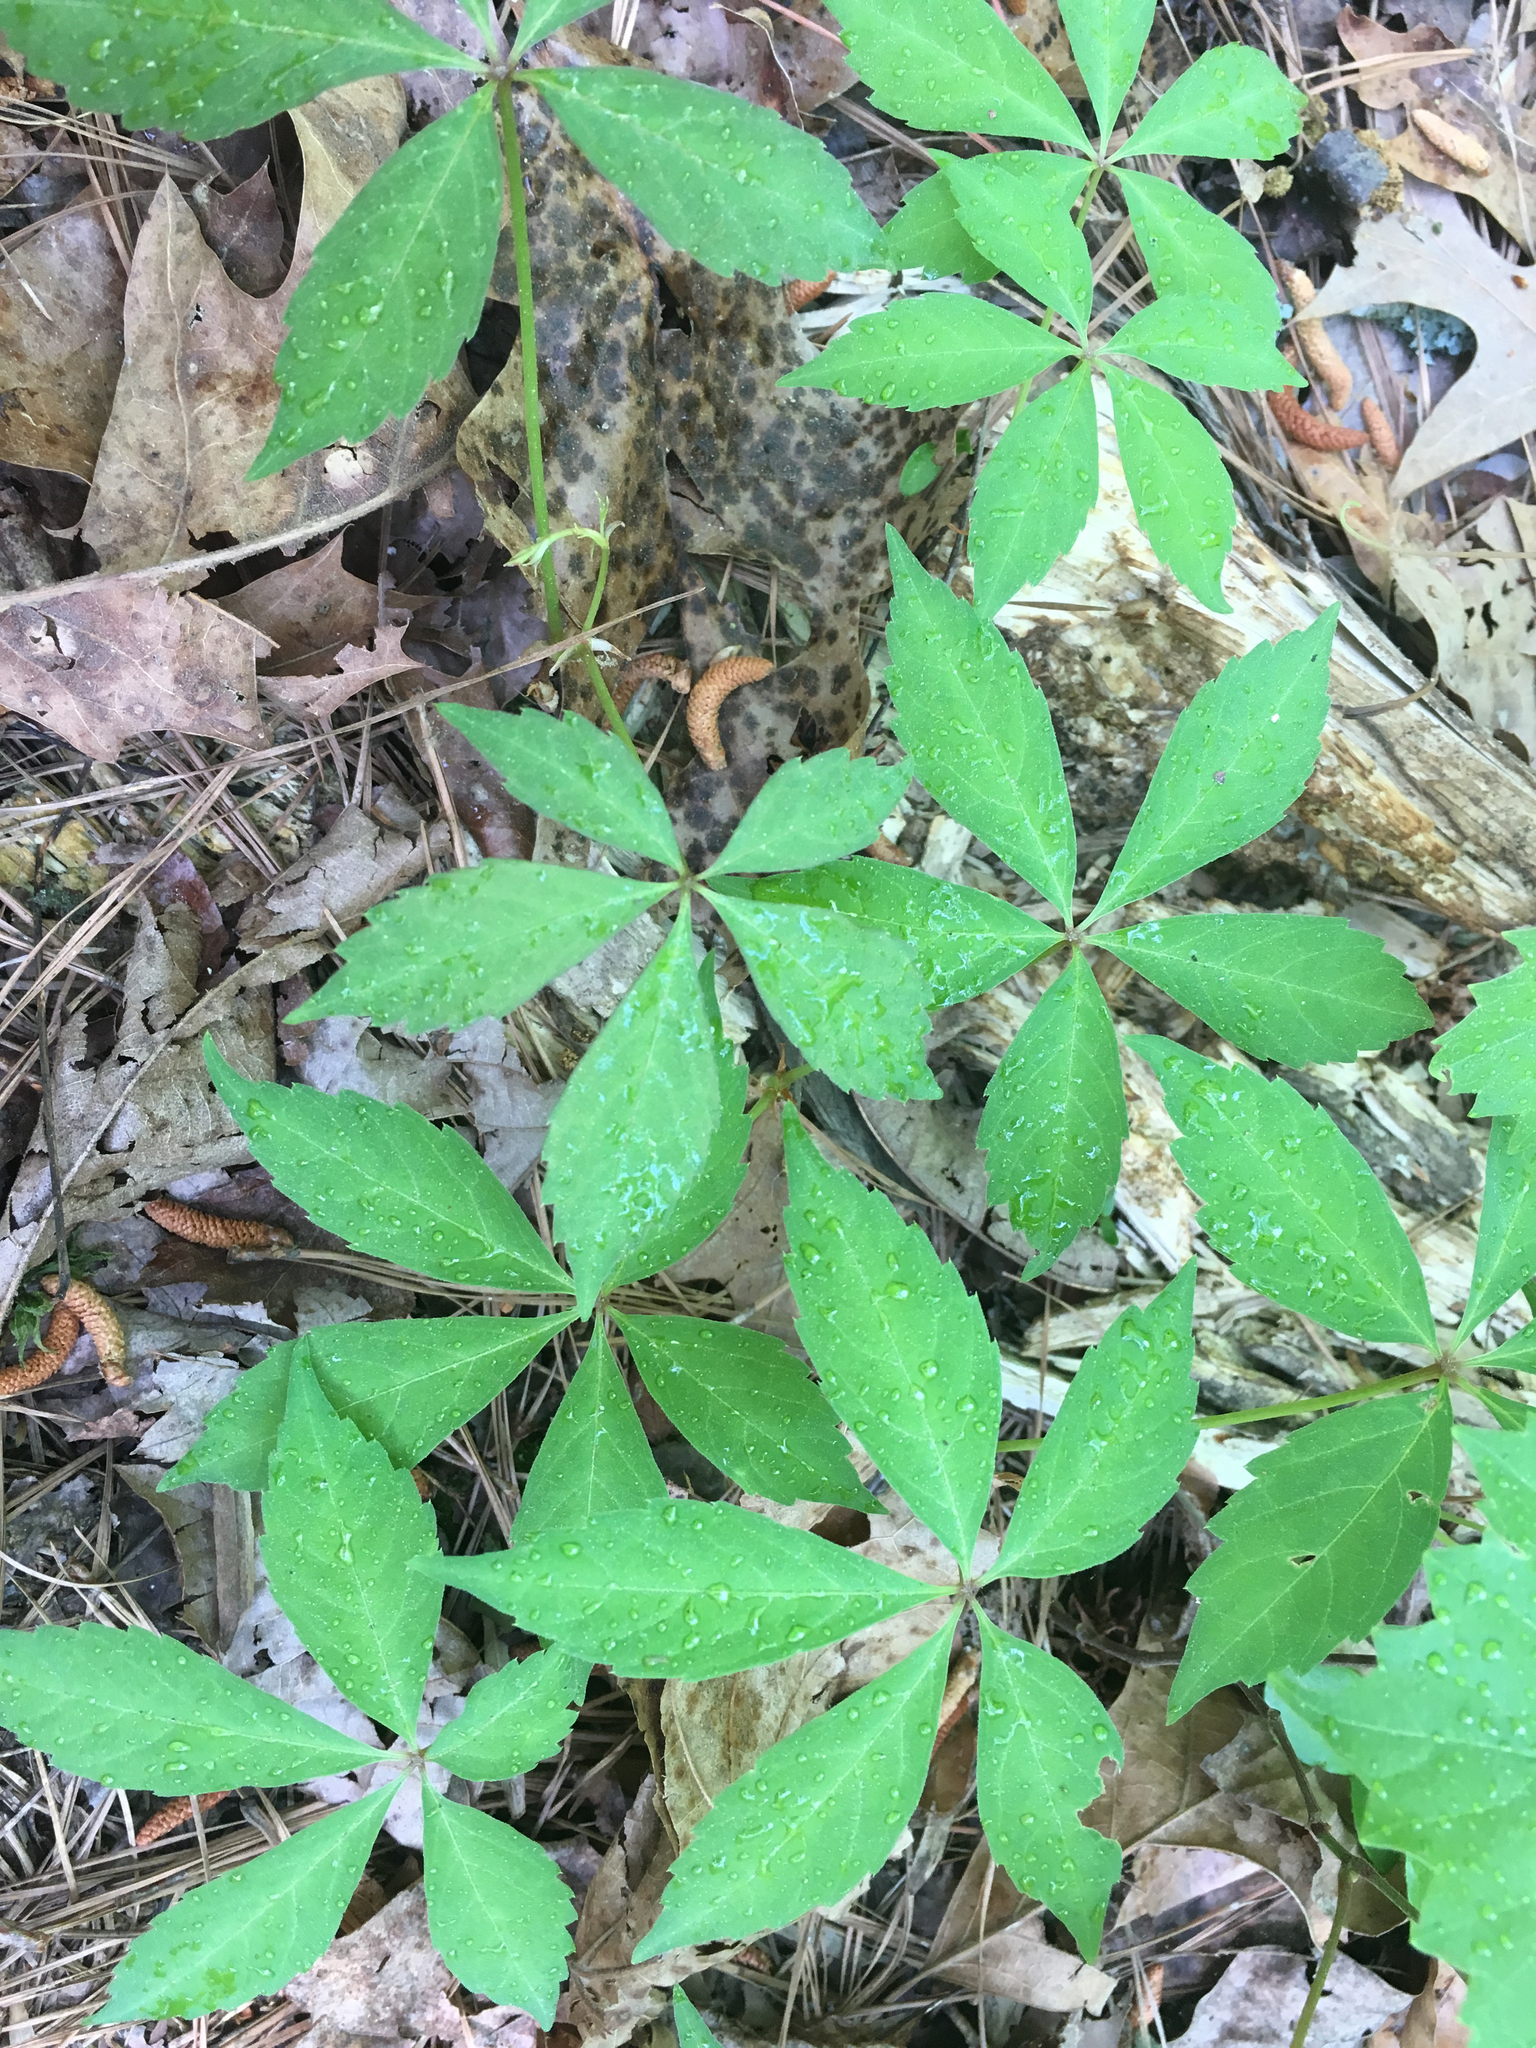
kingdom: Plantae
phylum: Tracheophyta
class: Magnoliopsida
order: Vitales
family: Vitaceae
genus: Parthenocissus
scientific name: Parthenocissus quinquefolia
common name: Virginia-creeper
